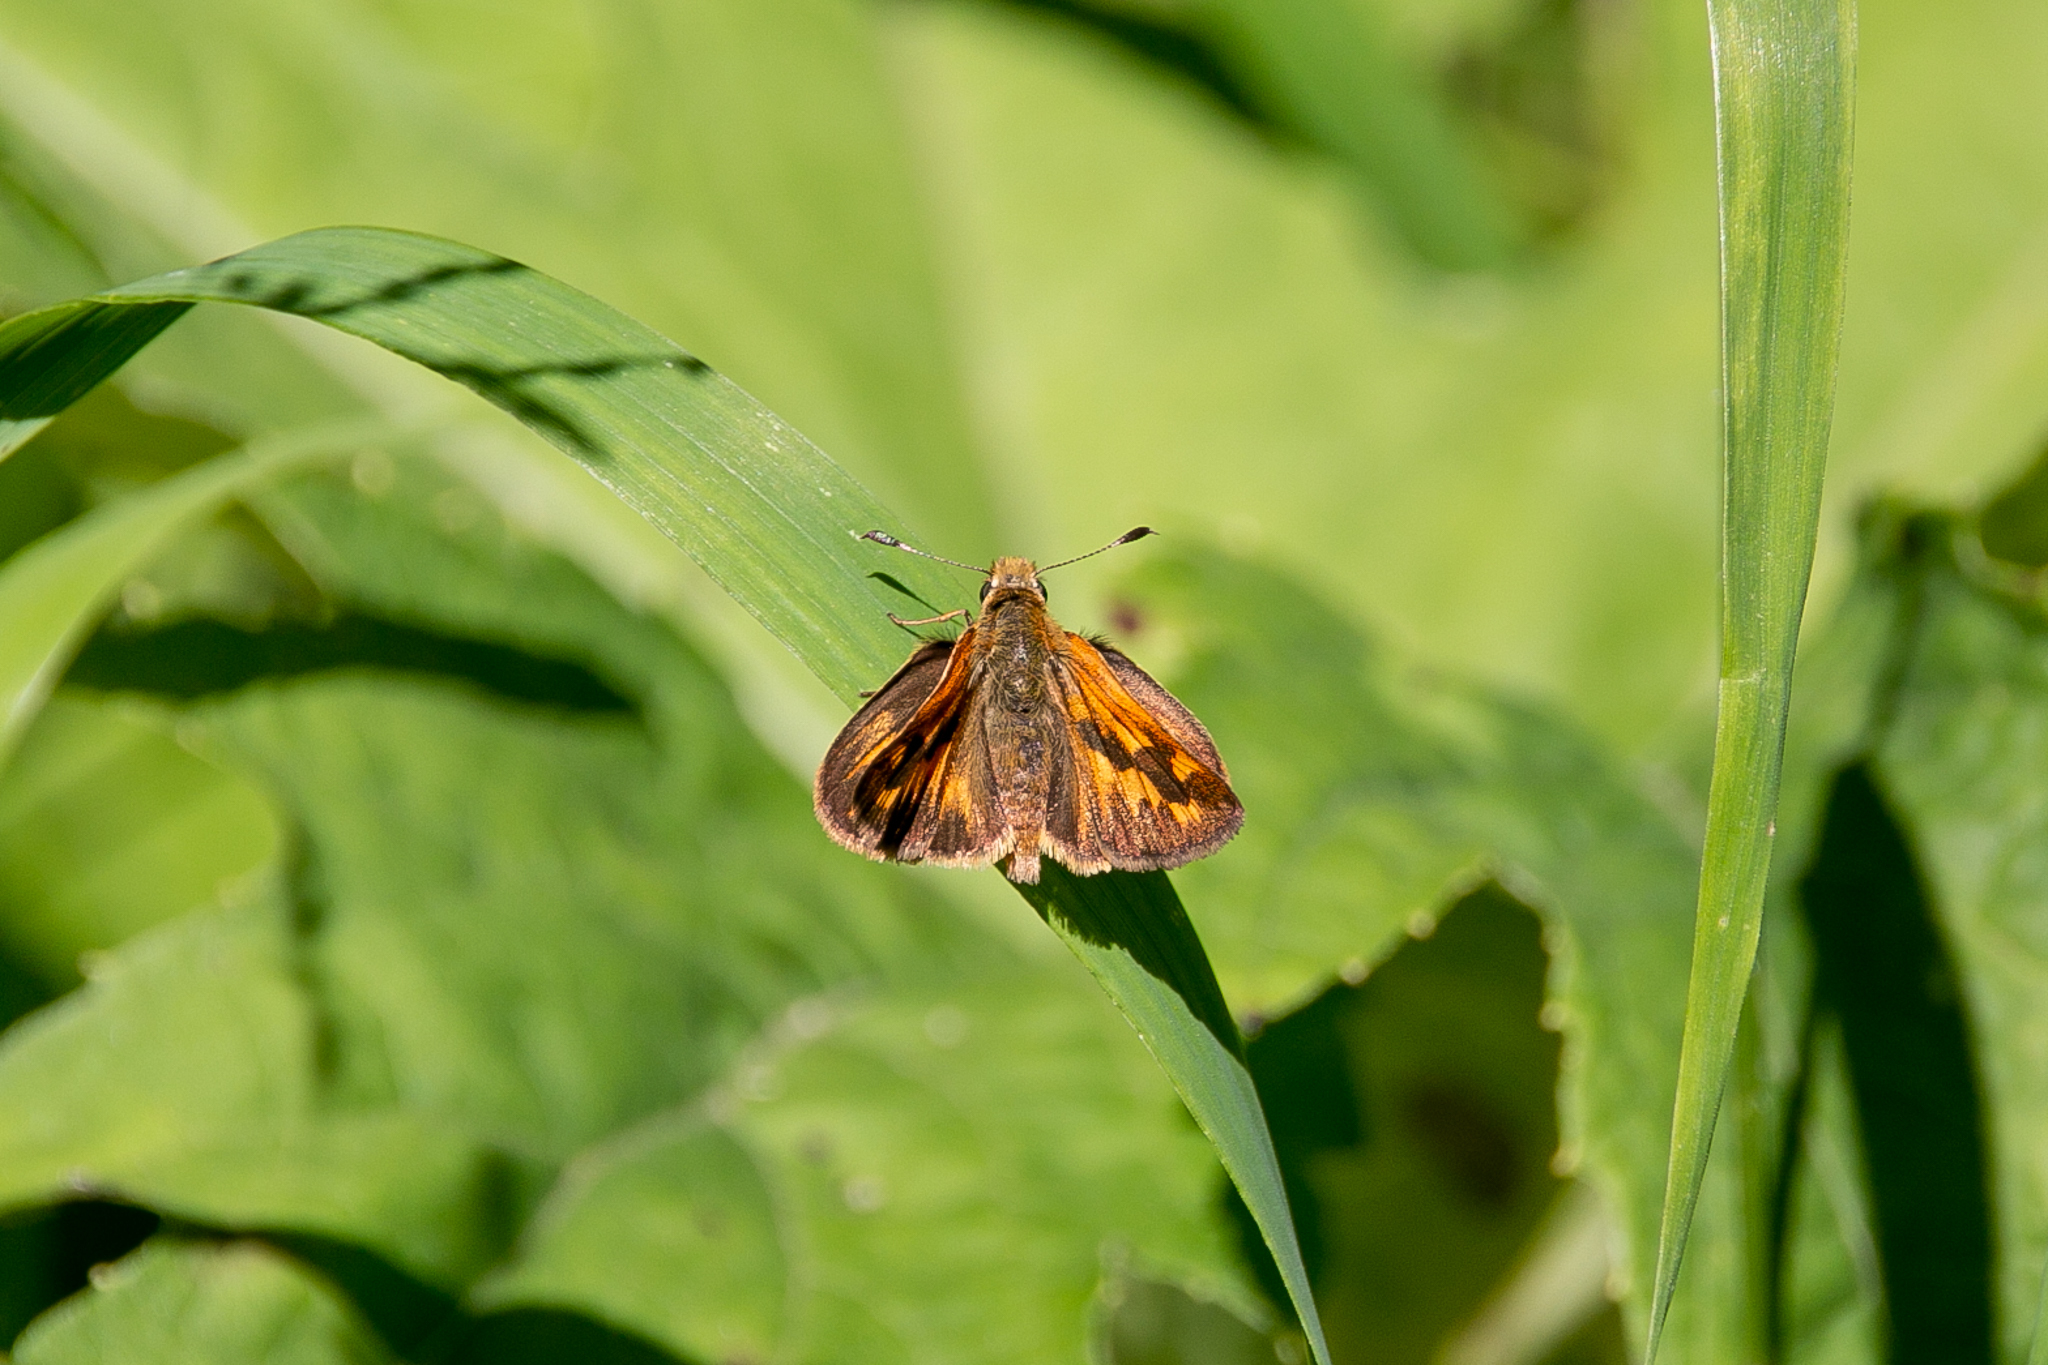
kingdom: Animalia
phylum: Arthropoda
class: Insecta
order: Lepidoptera
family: Hesperiidae
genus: Ochlodes
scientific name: Ochlodes sylvanoides
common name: Woodland skipper
